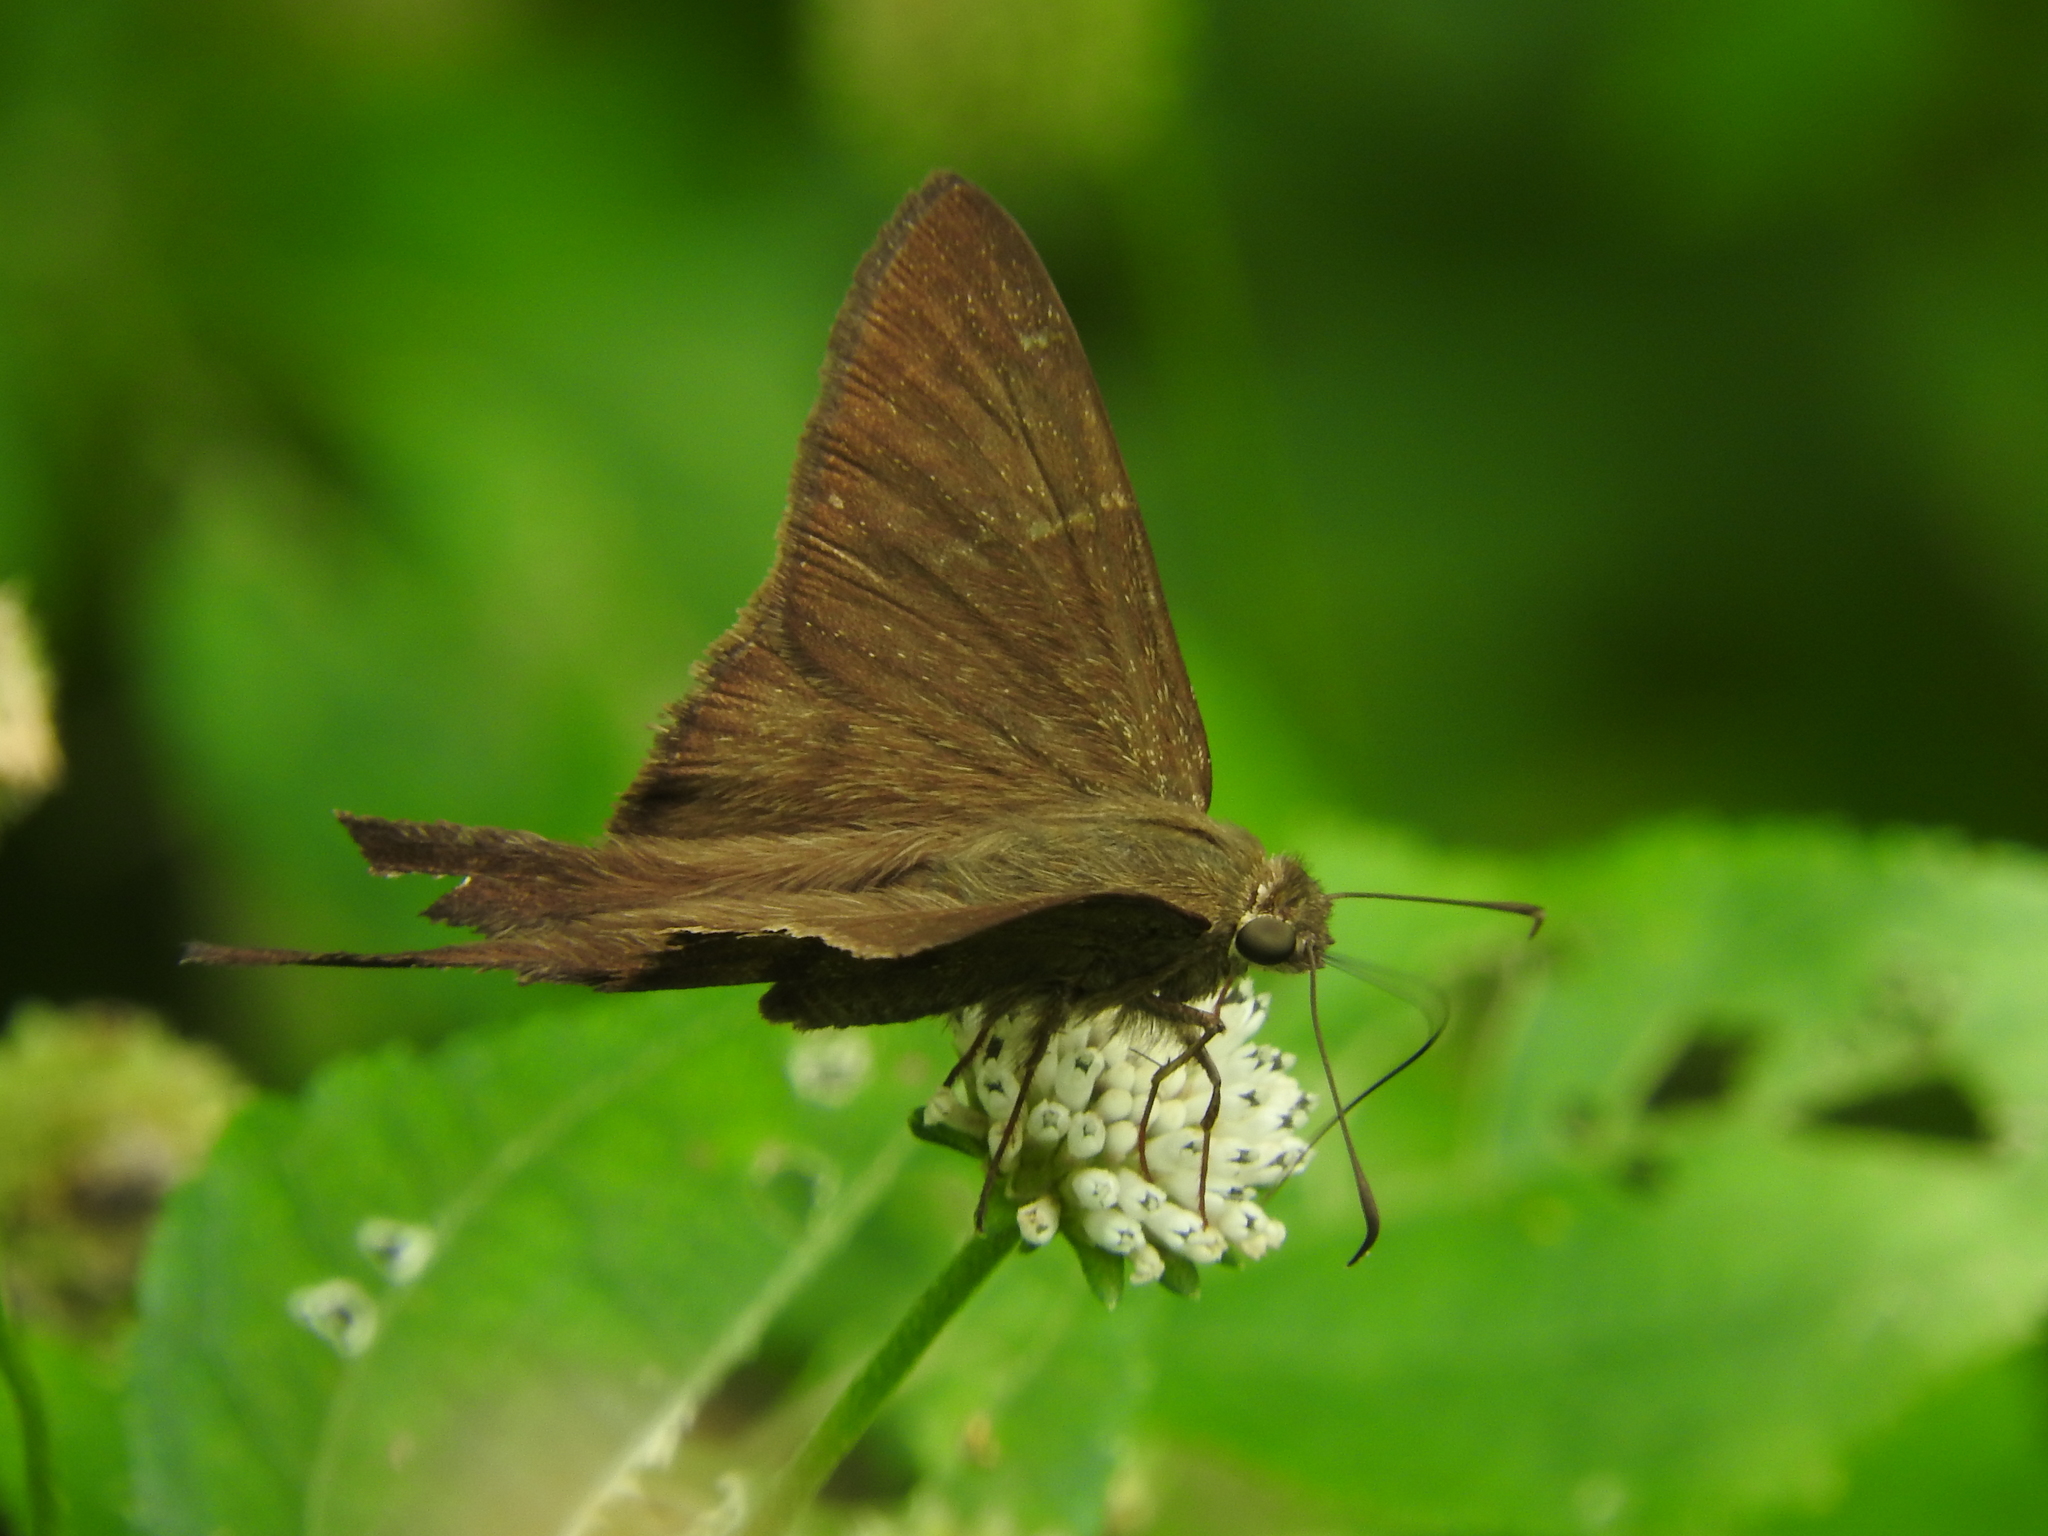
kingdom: Animalia
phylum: Arthropoda
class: Insecta
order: Lepidoptera
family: Hesperiidae
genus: Urbanus
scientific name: Urbanus teleus
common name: Teleus longtail
